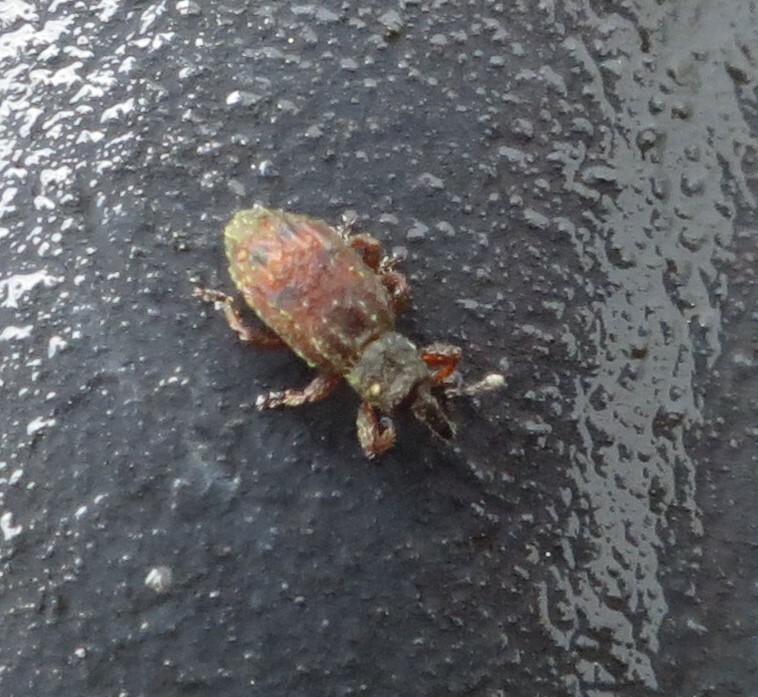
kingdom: Animalia
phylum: Arthropoda
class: Insecta
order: Coleoptera
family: Curculionidae
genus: Orthochaetes
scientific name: Orthochaetes setiger
